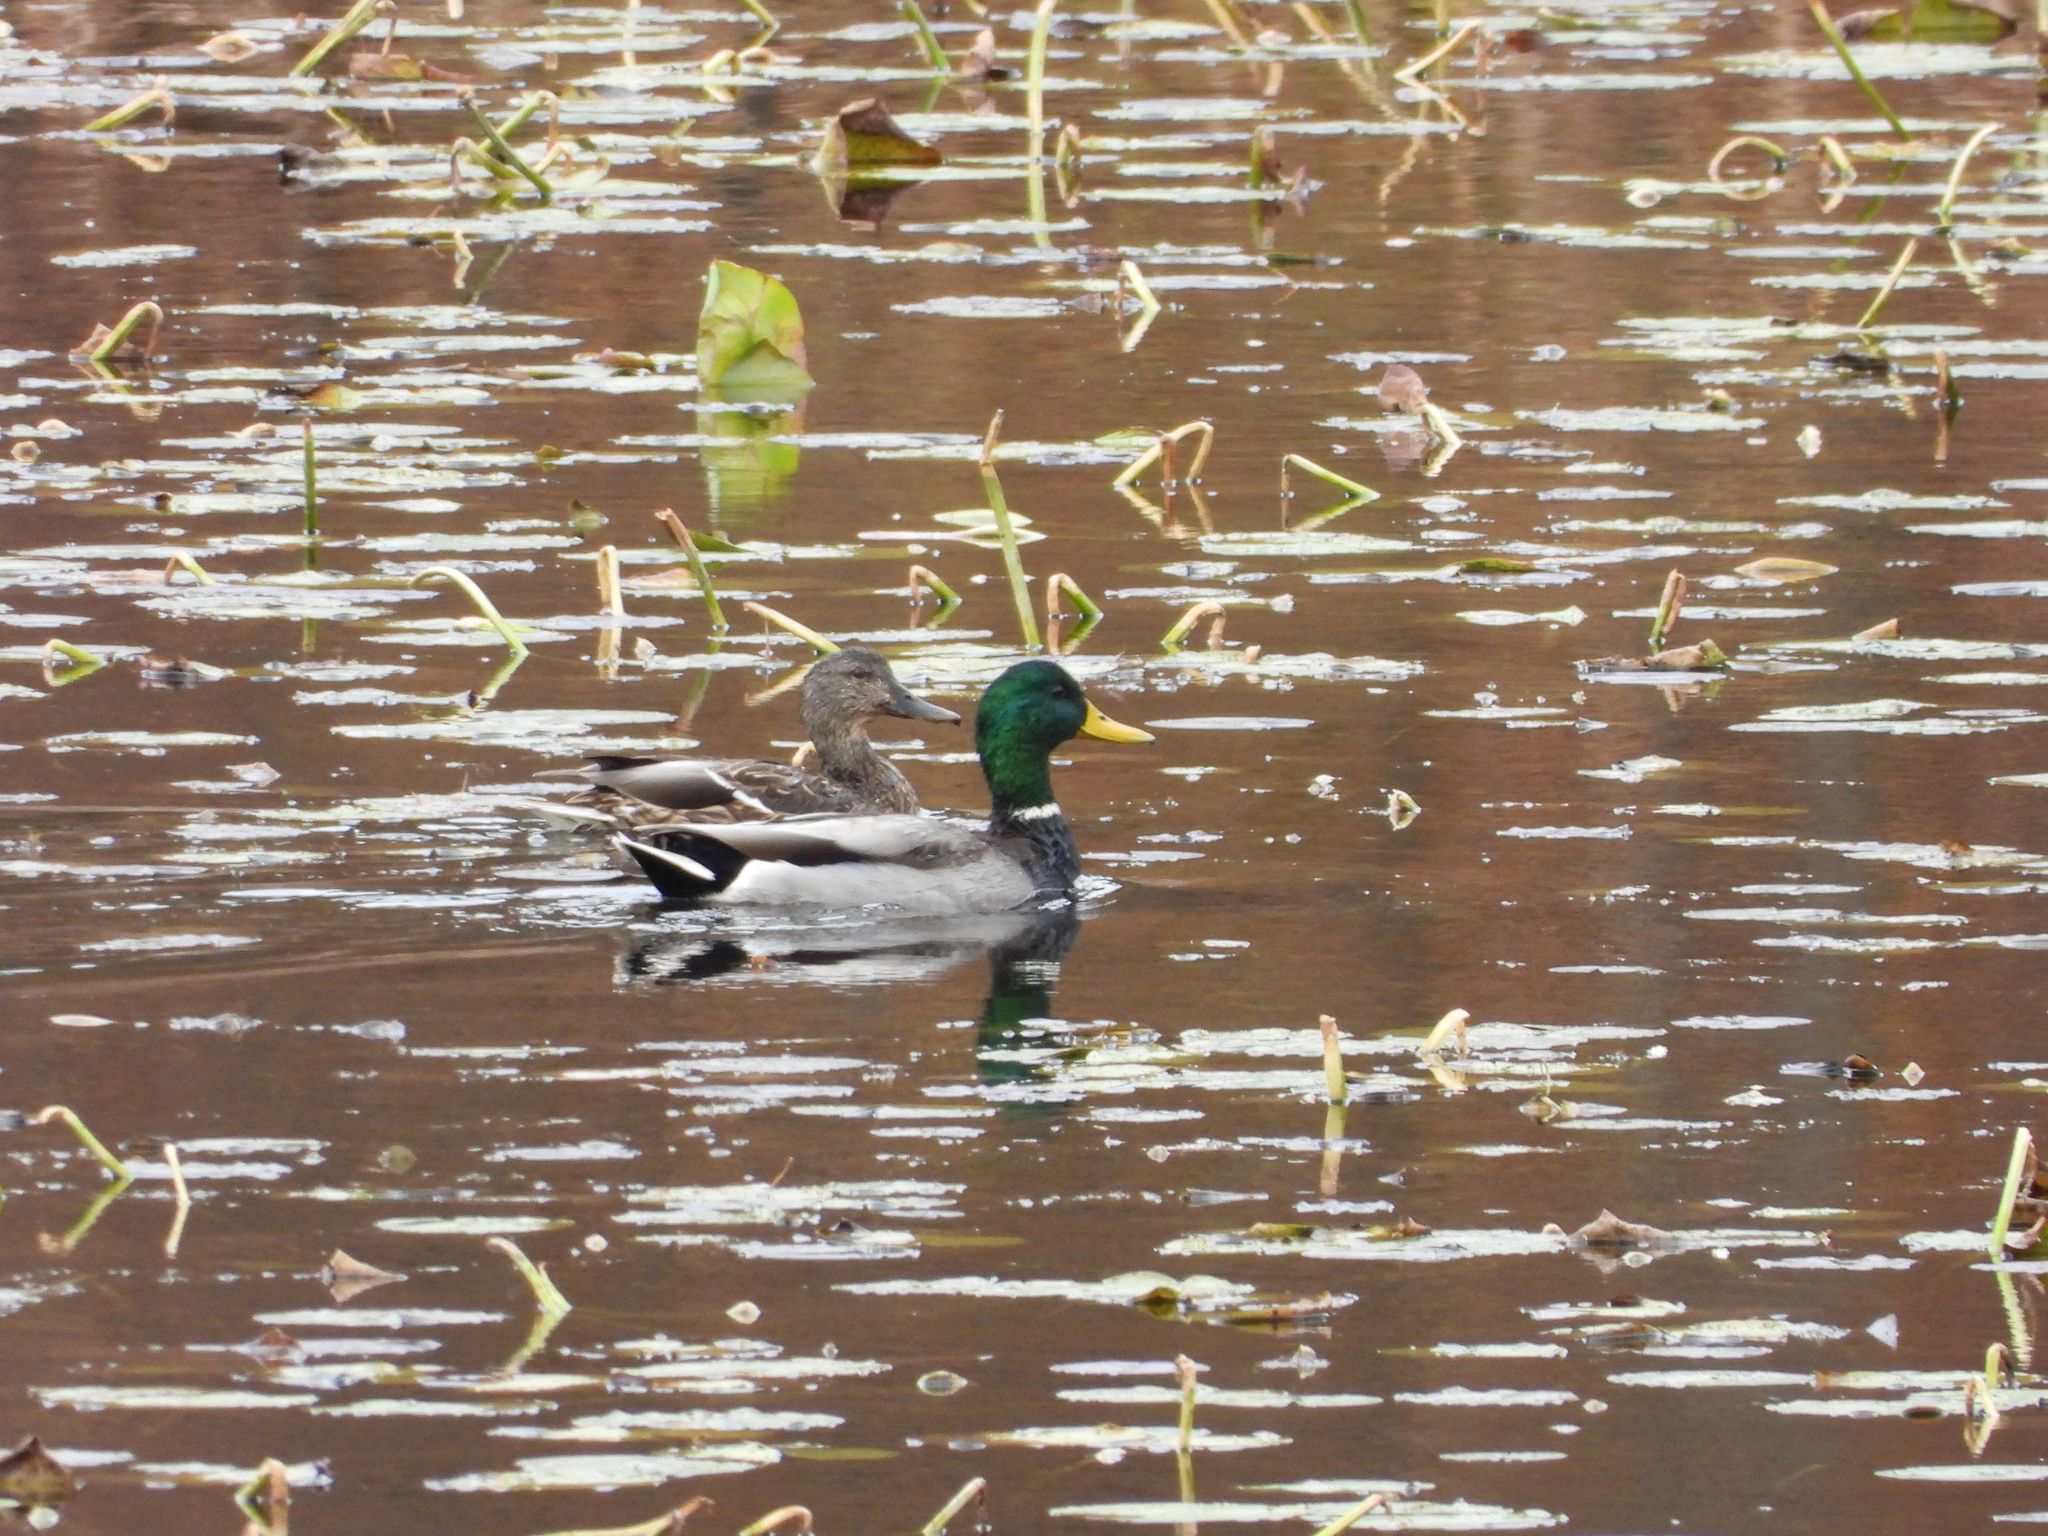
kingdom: Animalia
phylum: Chordata
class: Aves
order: Anseriformes
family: Anatidae
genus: Anas
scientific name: Anas platyrhynchos
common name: Mallard
